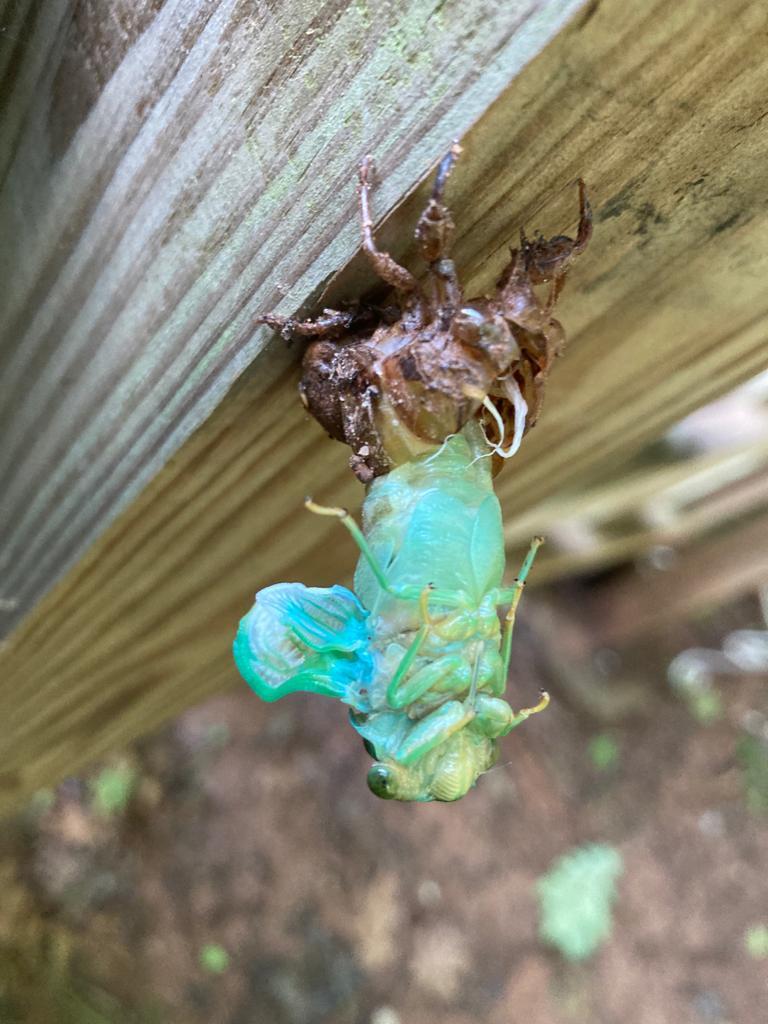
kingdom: Animalia
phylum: Arthropoda
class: Insecta
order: Hemiptera
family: Cicadidae
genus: Neotibicen
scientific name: Neotibicen tibicen
